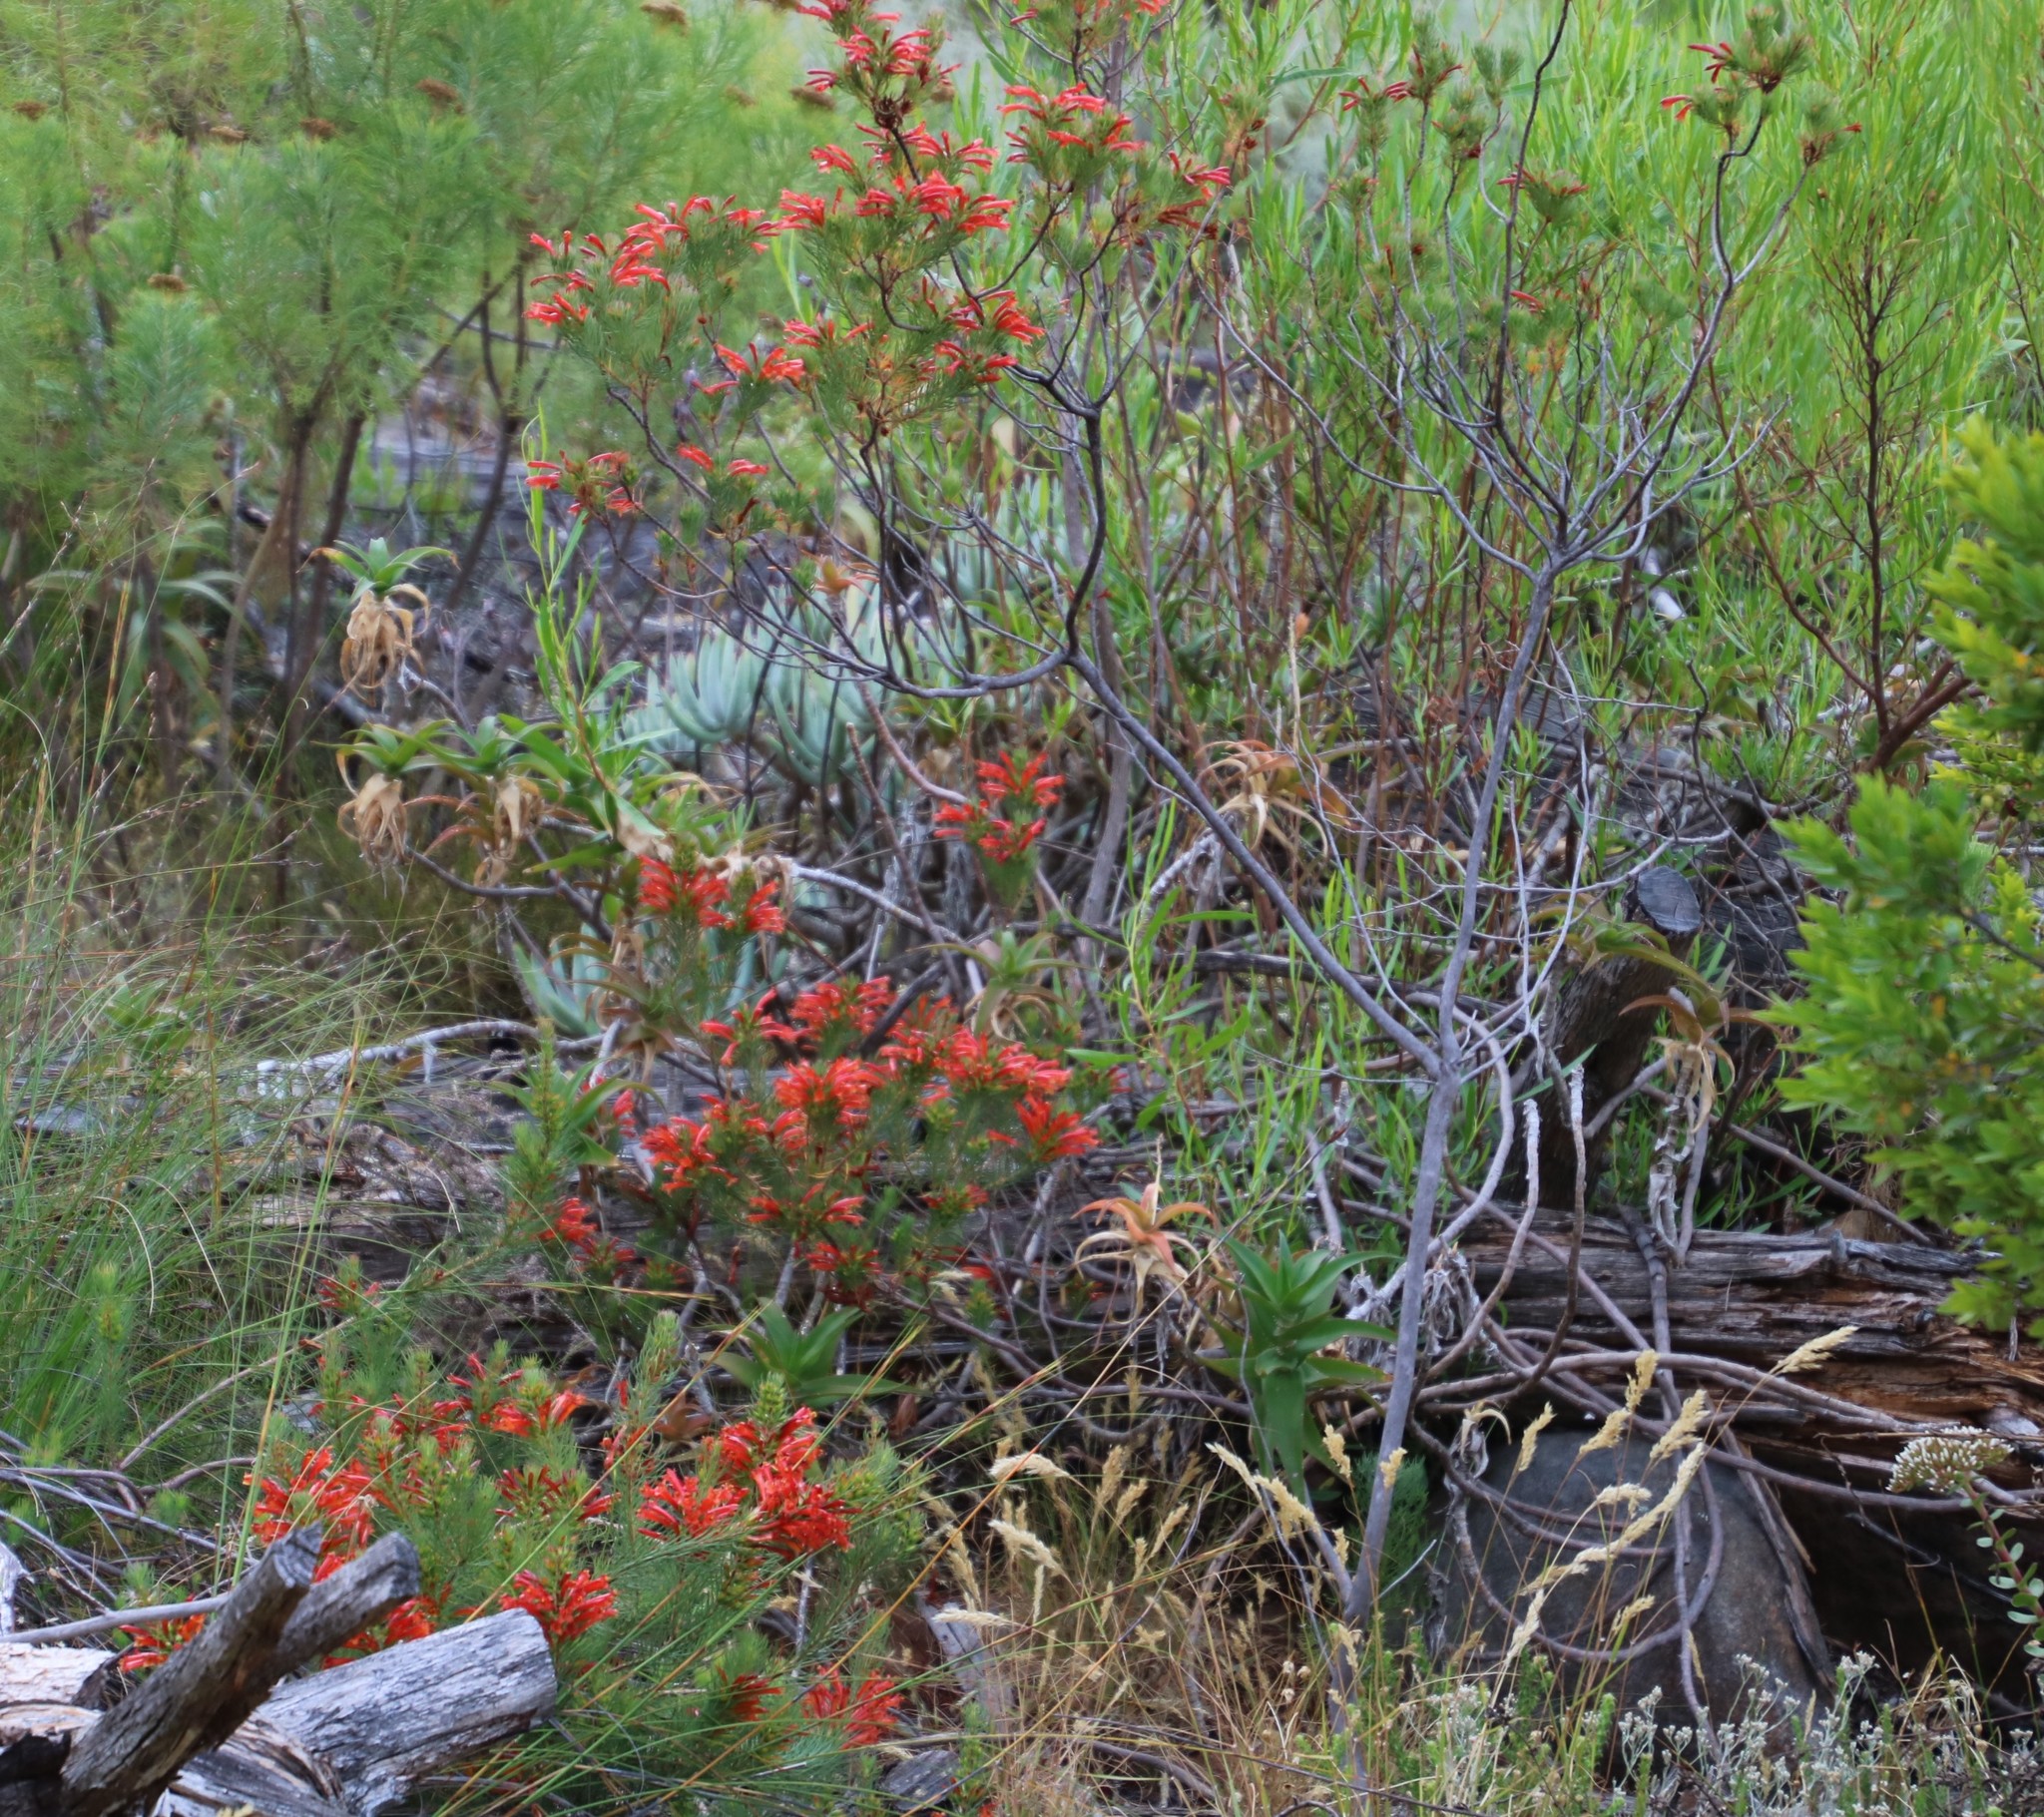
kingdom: Plantae
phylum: Tracheophyta
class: Magnoliopsida
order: Ericales
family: Ericaceae
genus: Erica
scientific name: Erica grandiflora
